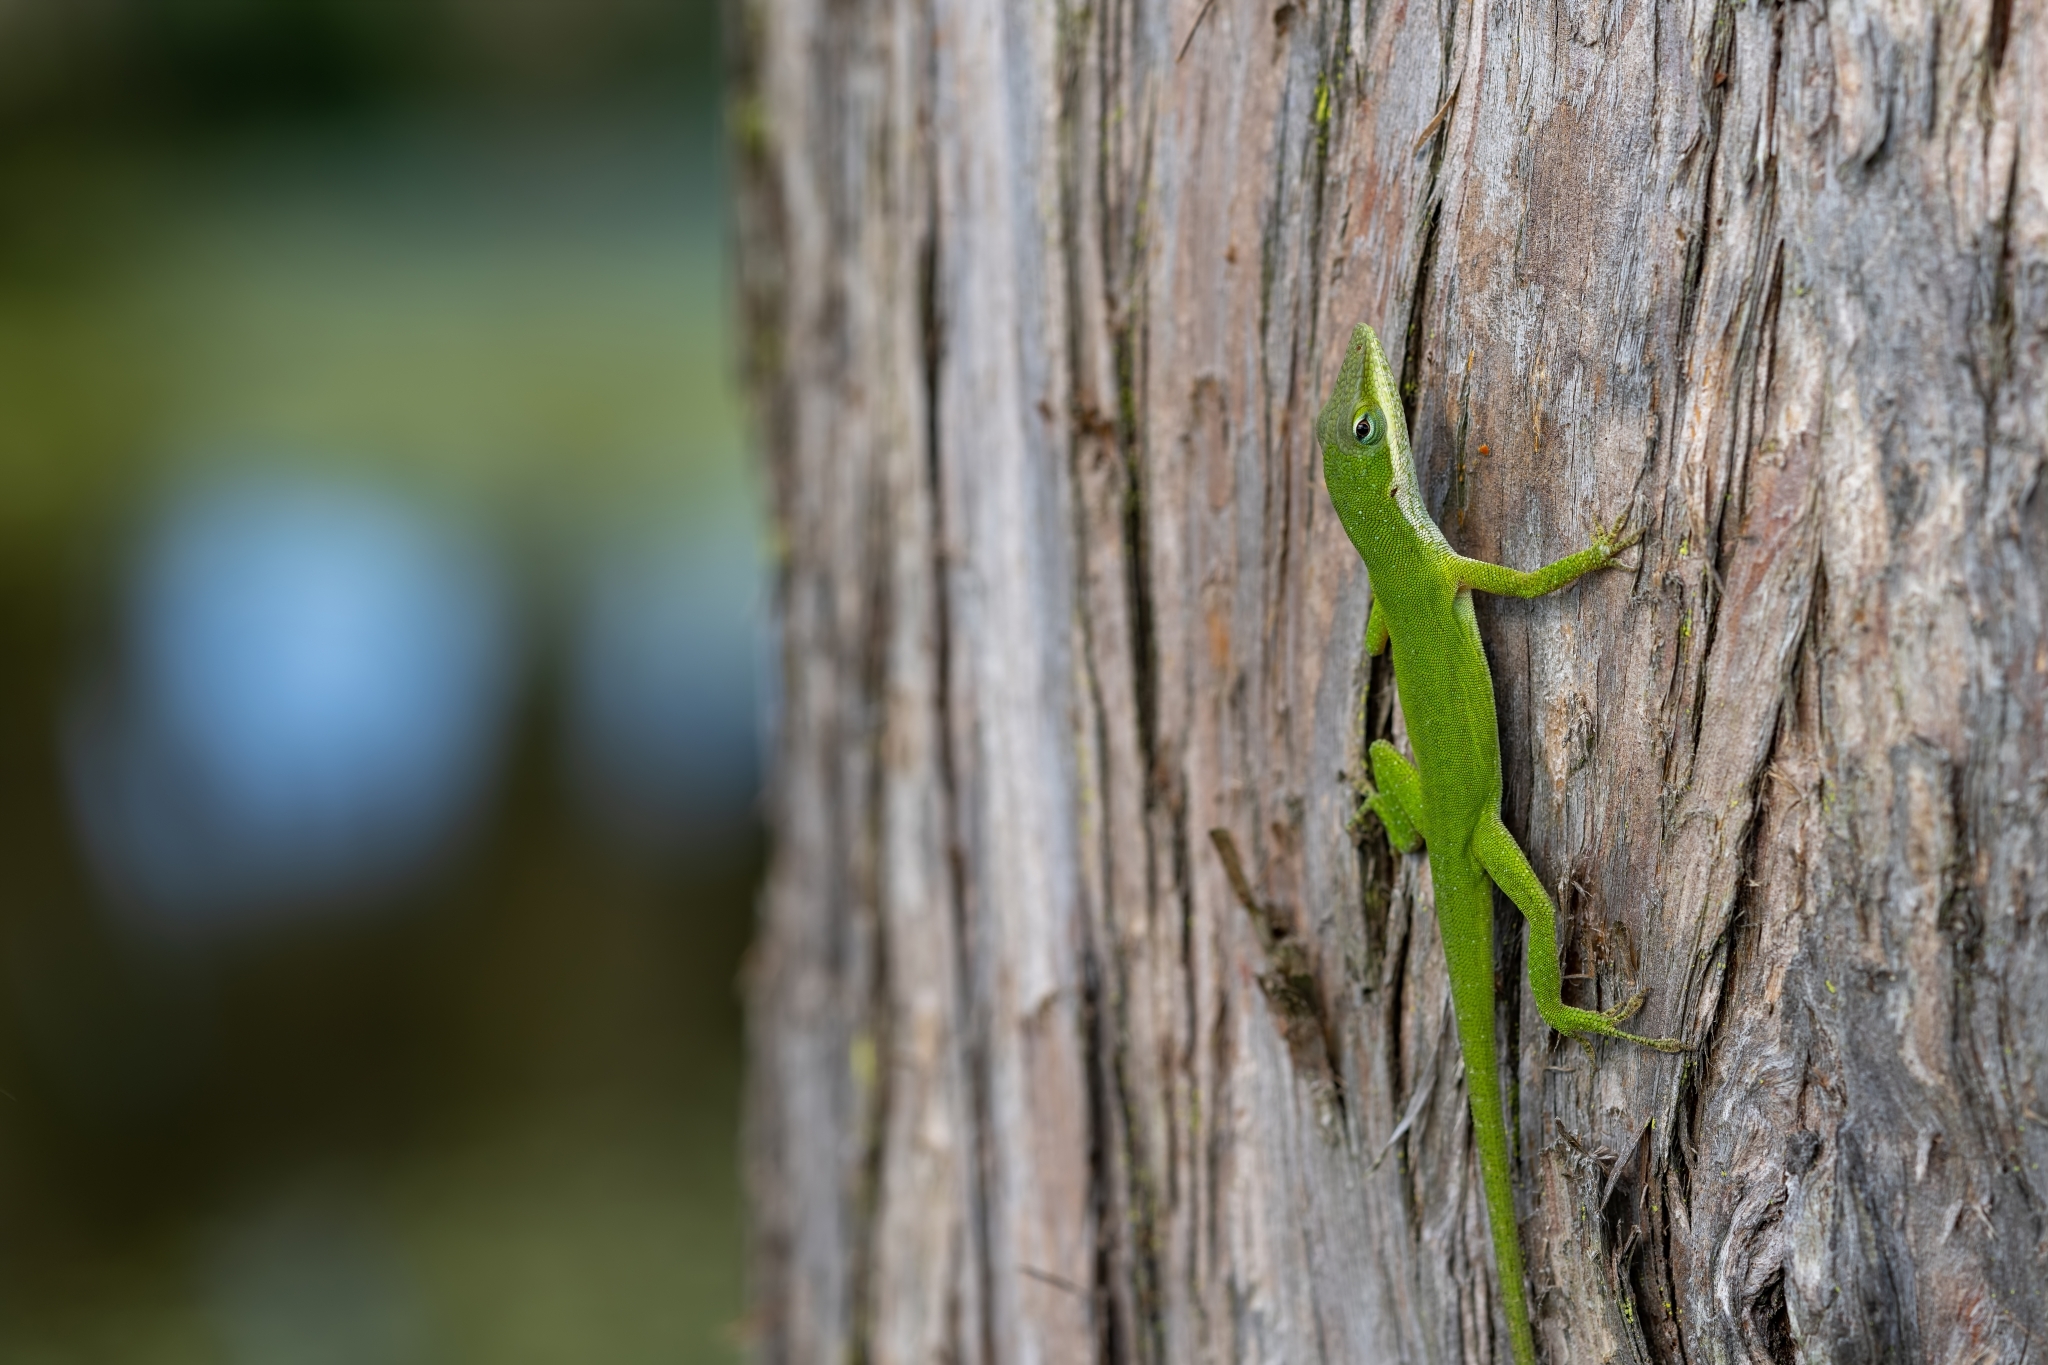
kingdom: Animalia
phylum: Chordata
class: Squamata
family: Dactyloidae
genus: Anolis
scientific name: Anolis carolinensis
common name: Green anole
